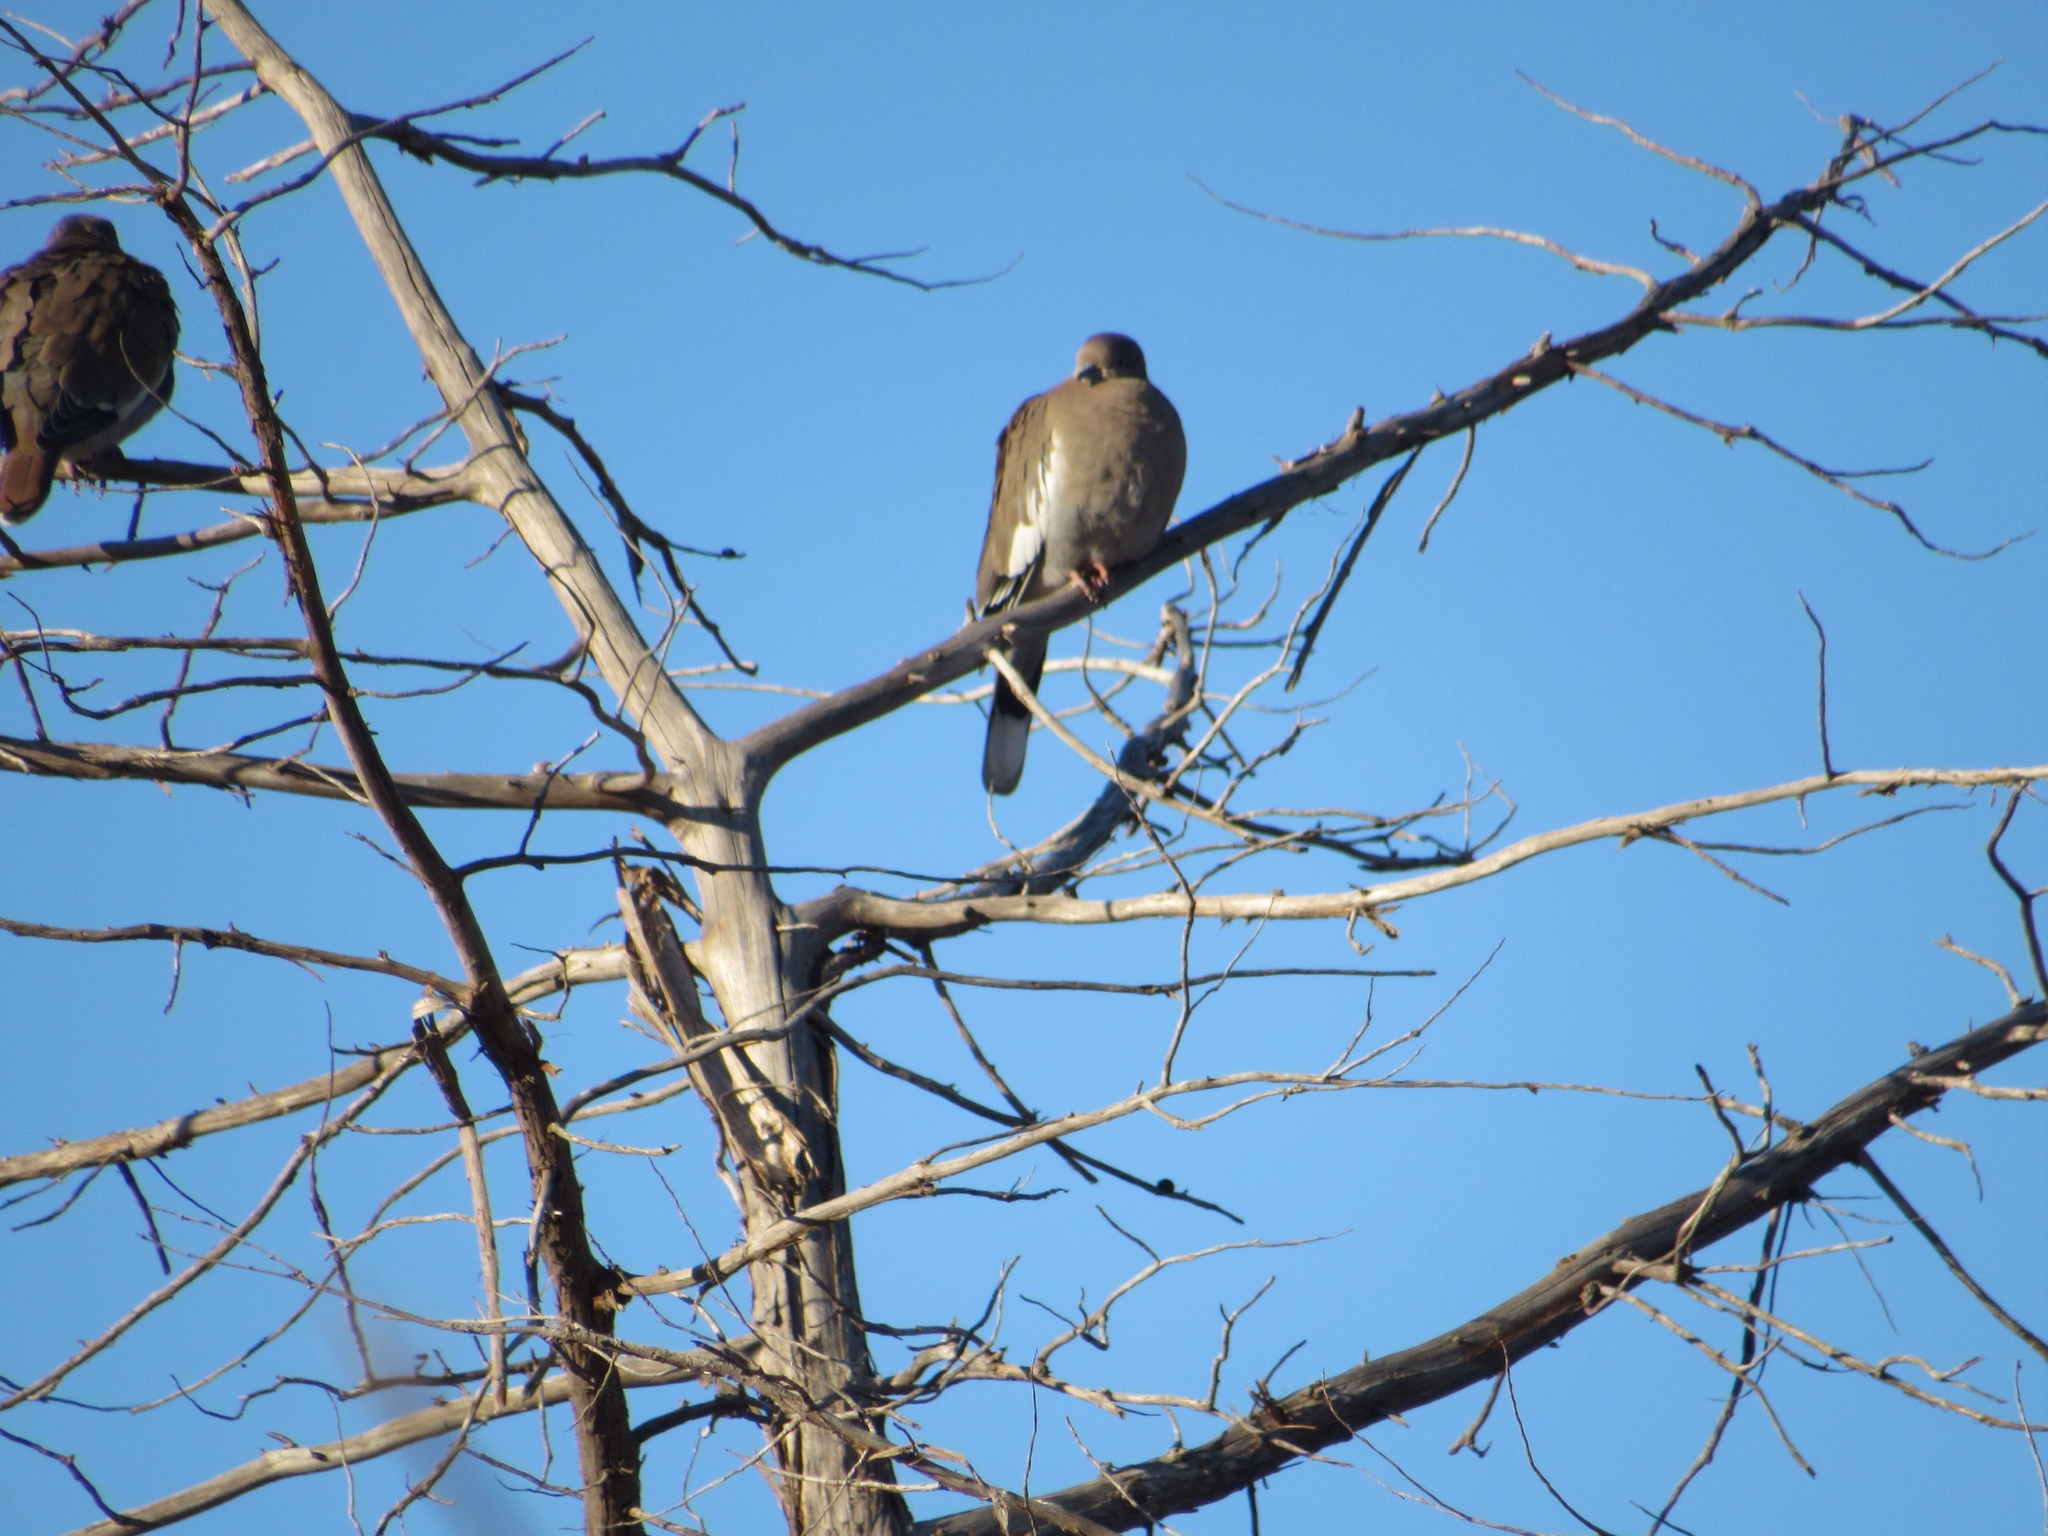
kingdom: Animalia
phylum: Chordata
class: Aves
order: Columbiformes
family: Columbidae
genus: Zenaida
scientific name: Zenaida asiatica
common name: White-winged dove
